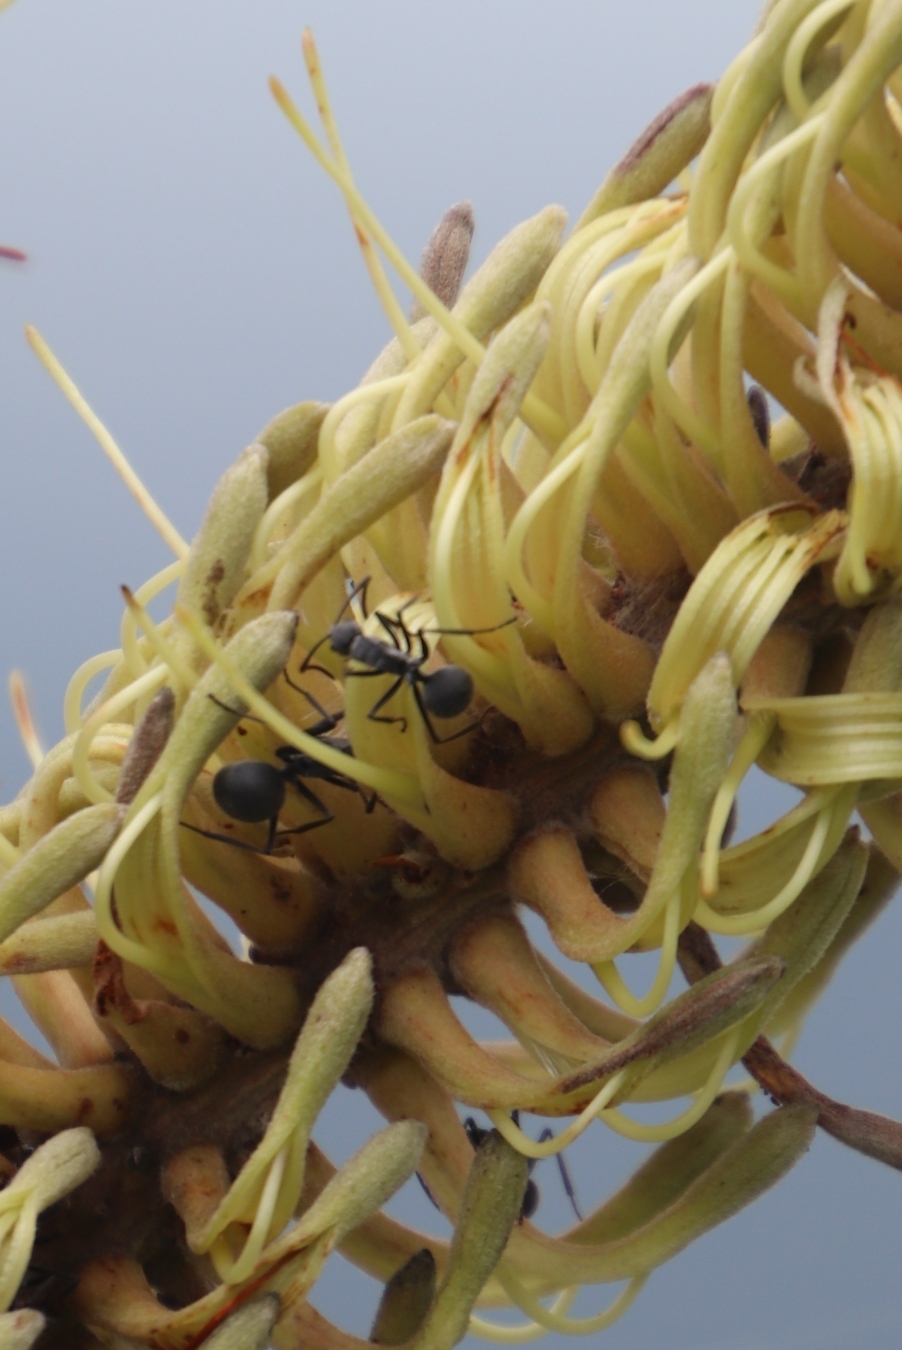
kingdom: Plantae
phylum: Tracheophyta
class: Magnoliopsida
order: Proteales
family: Proteaceae
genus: Faurea
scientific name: Faurea rochetiana
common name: Broad-leaved beech
